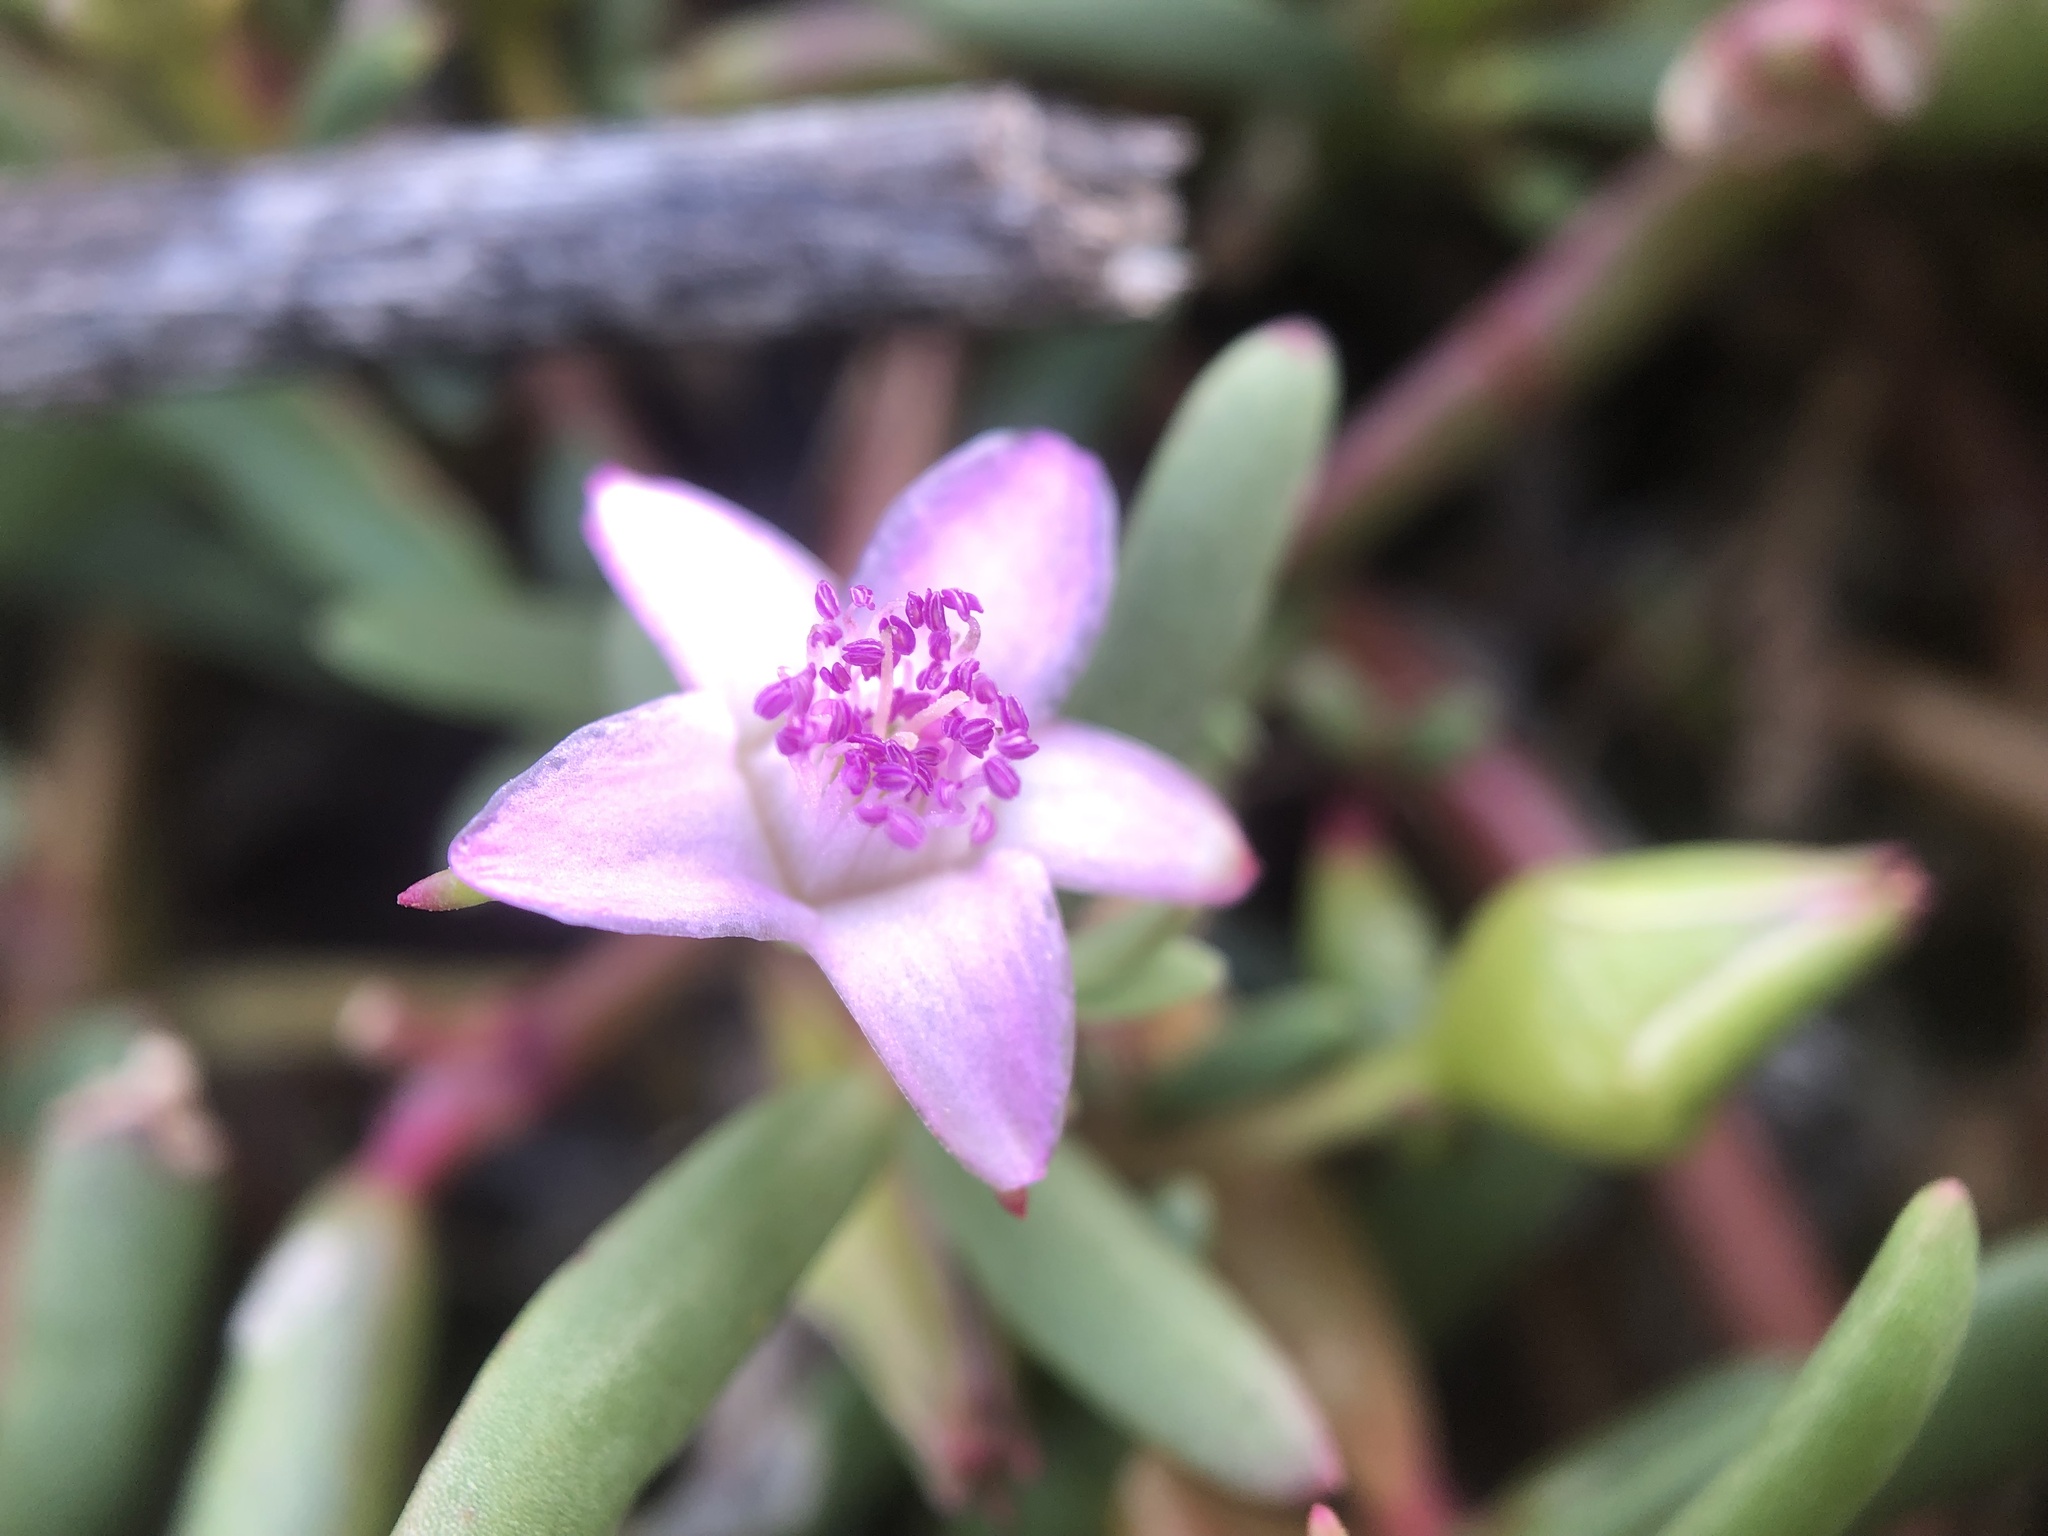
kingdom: Plantae
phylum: Tracheophyta
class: Magnoliopsida
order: Caryophyllales
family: Aizoaceae
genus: Sesuvium
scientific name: Sesuvium portulacastrum
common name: Sea-purslane
